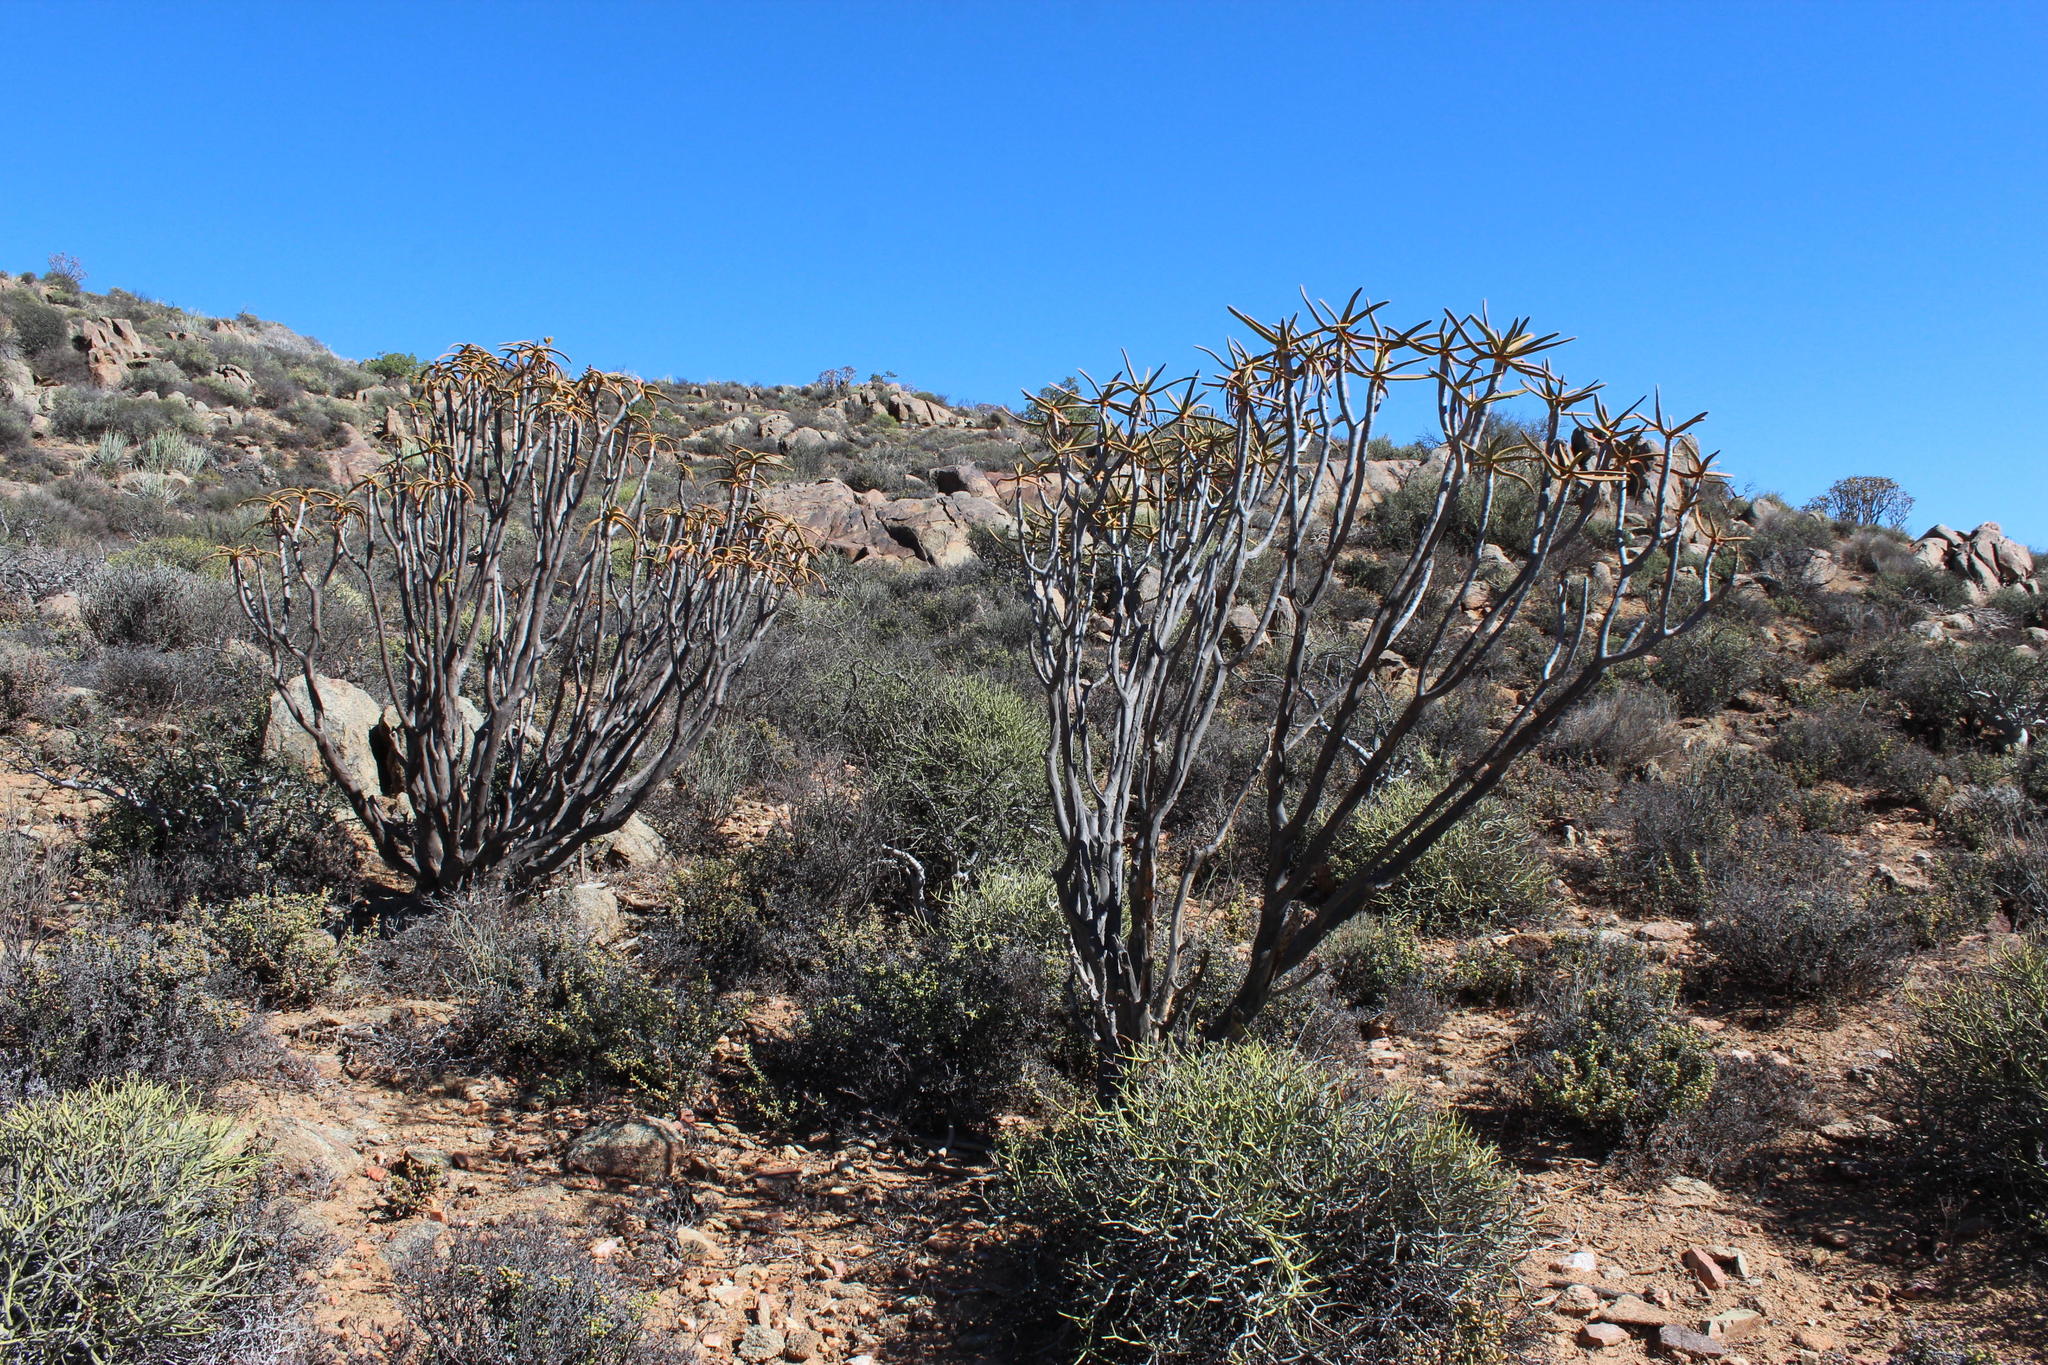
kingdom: Plantae
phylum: Tracheophyta
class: Liliopsida
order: Asparagales
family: Asphodelaceae
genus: Aloidendron
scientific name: Aloidendron ramosissimum
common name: Bush quiver tree
